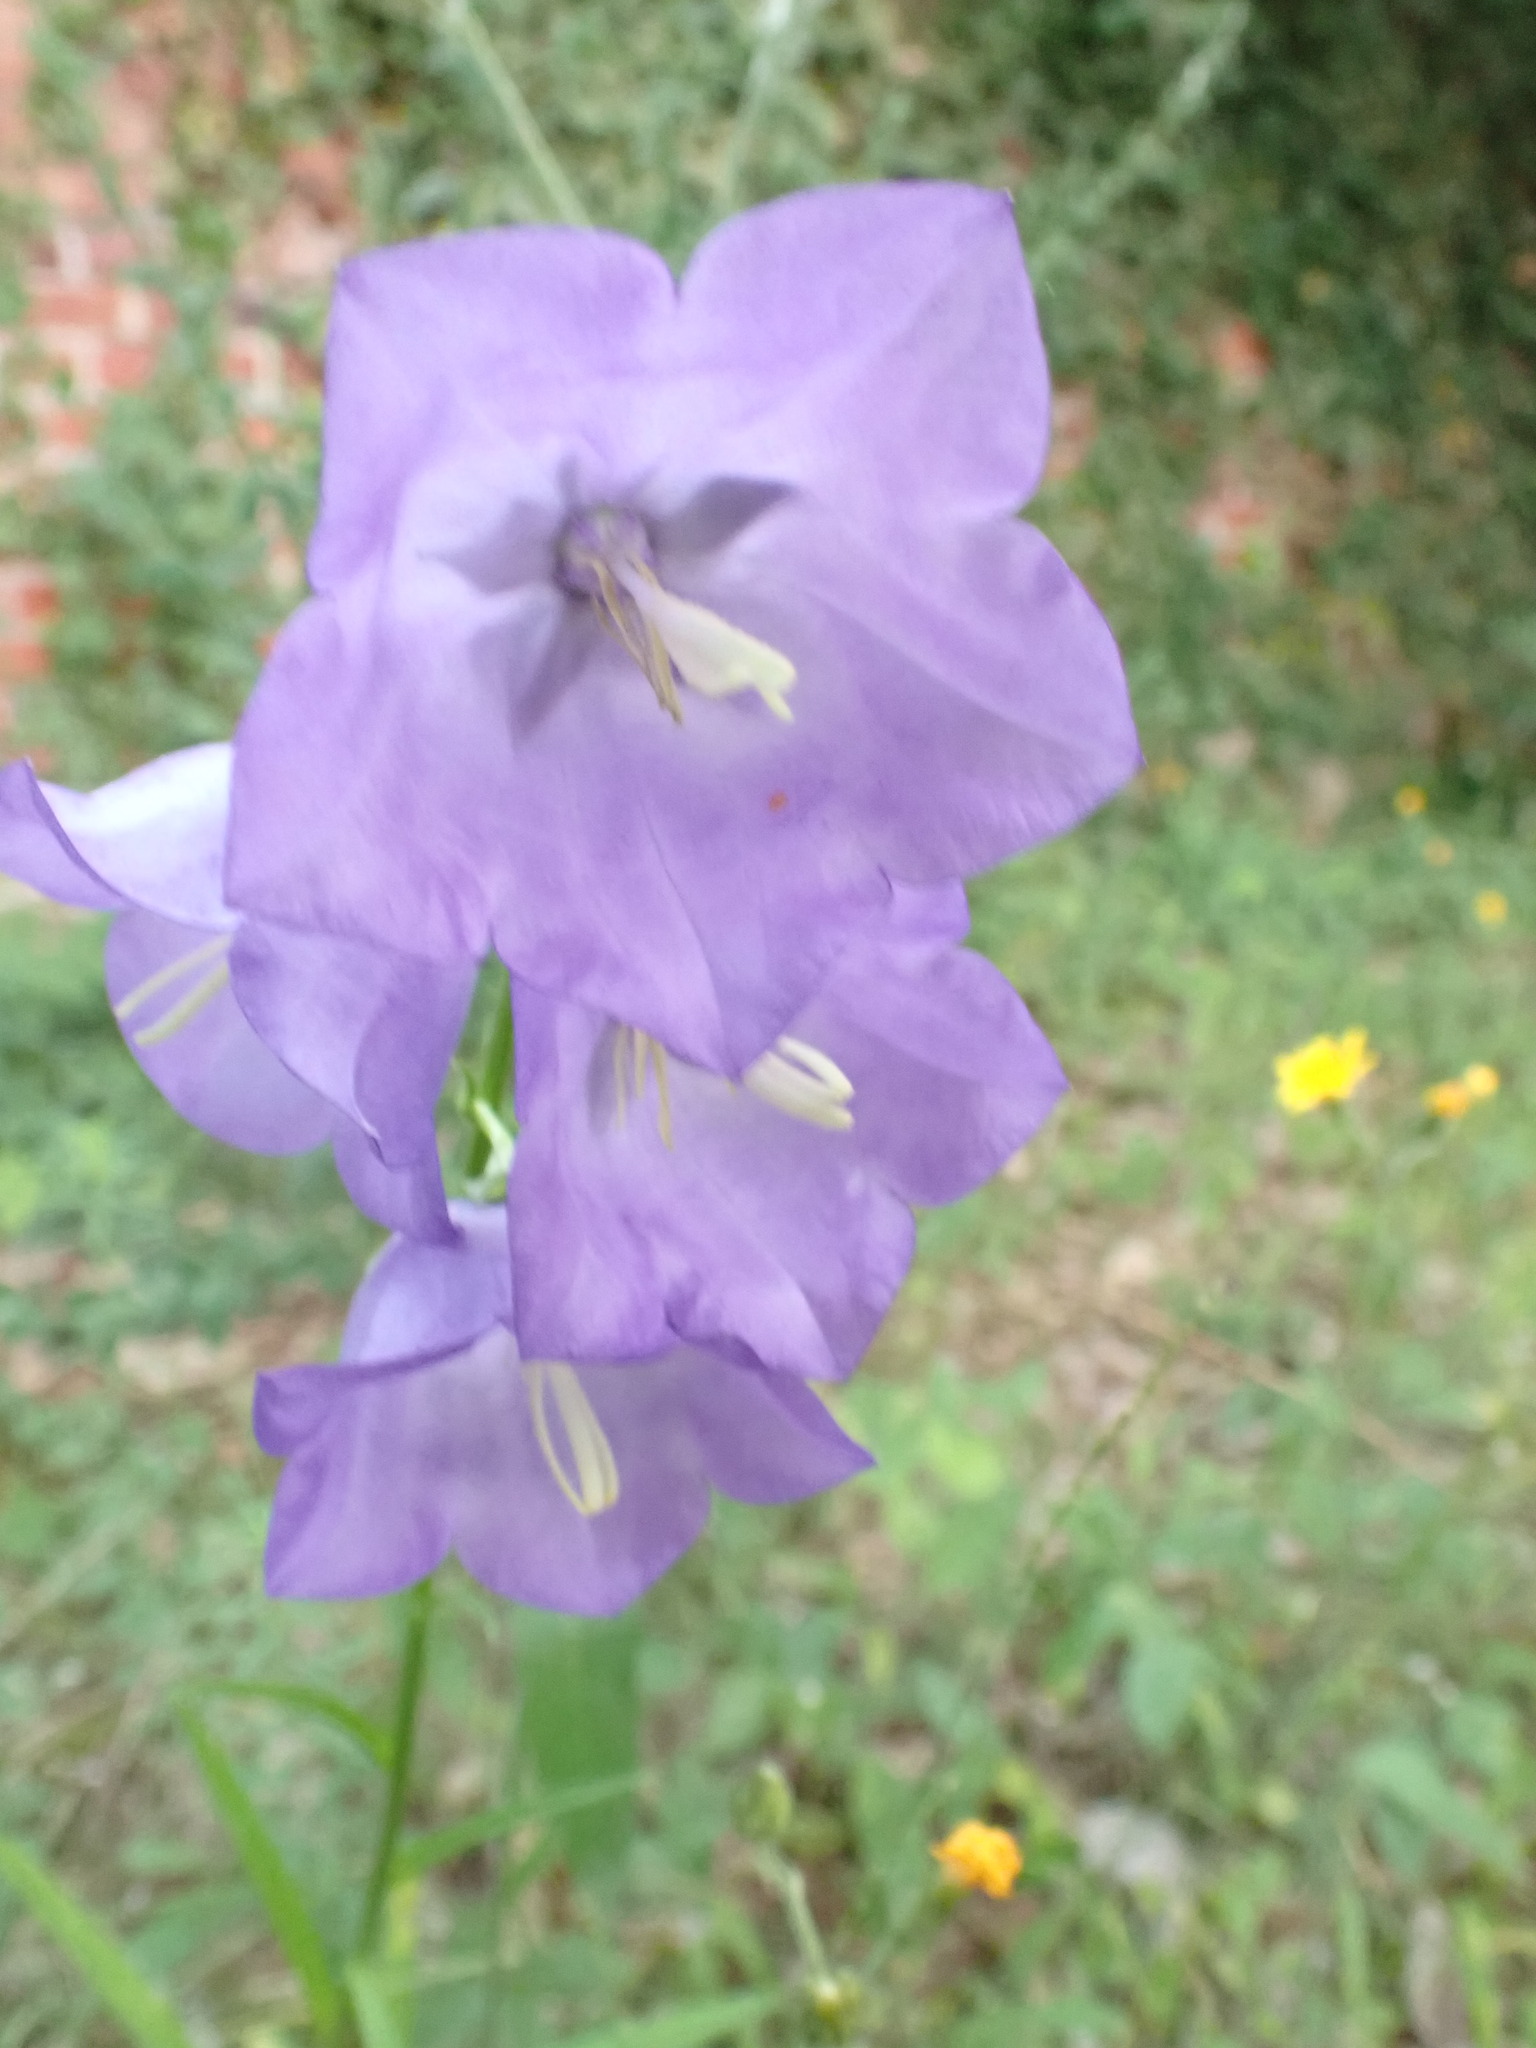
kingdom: Plantae
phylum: Tracheophyta
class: Magnoliopsida
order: Asterales
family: Campanulaceae
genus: Campanula
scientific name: Campanula persicifolia
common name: Peach-leaved bellflower
